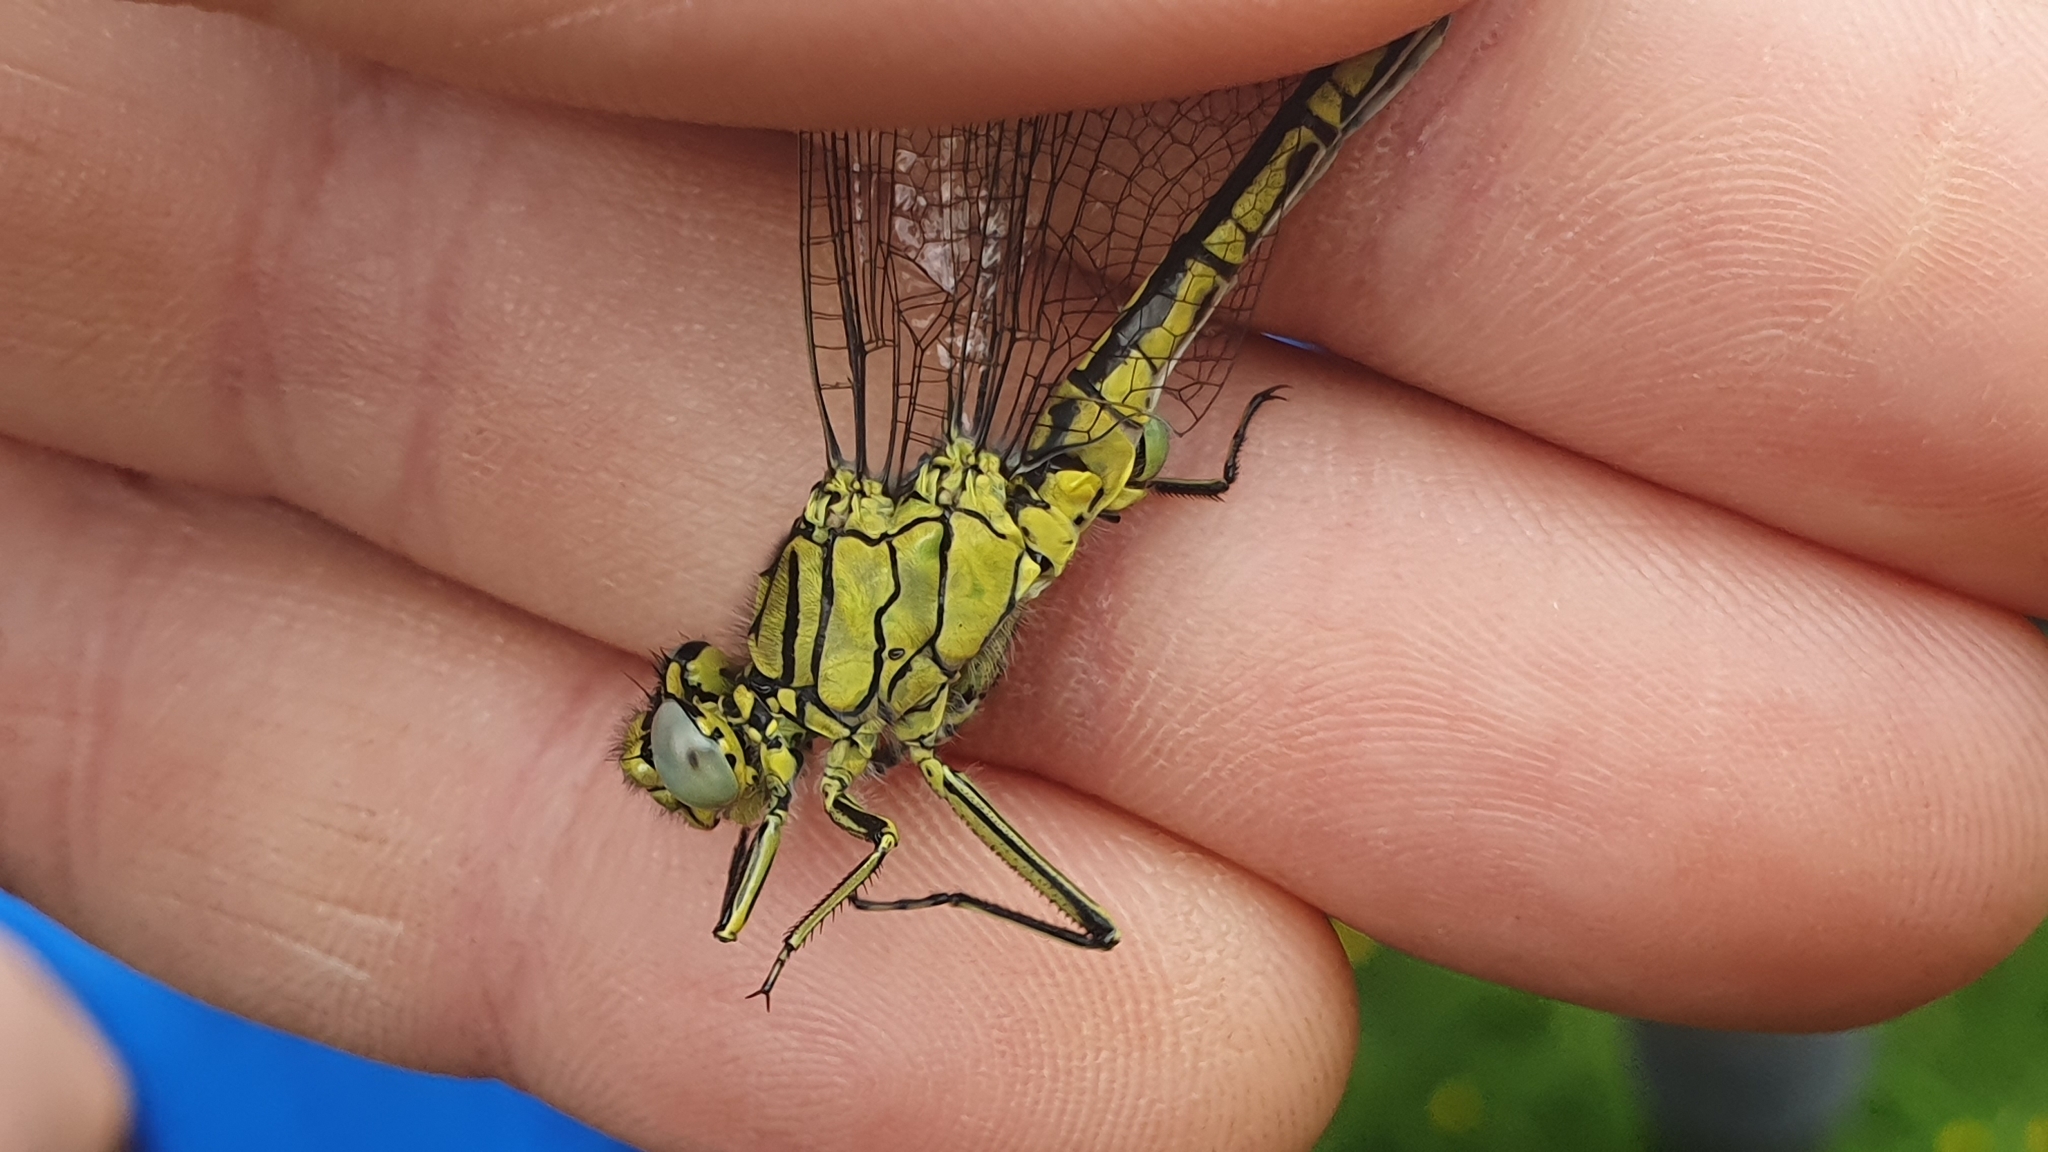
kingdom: Animalia
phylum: Arthropoda
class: Insecta
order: Odonata
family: Gomphidae
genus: Gomphus
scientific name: Gomphus pulchellus
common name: Western clubtail
